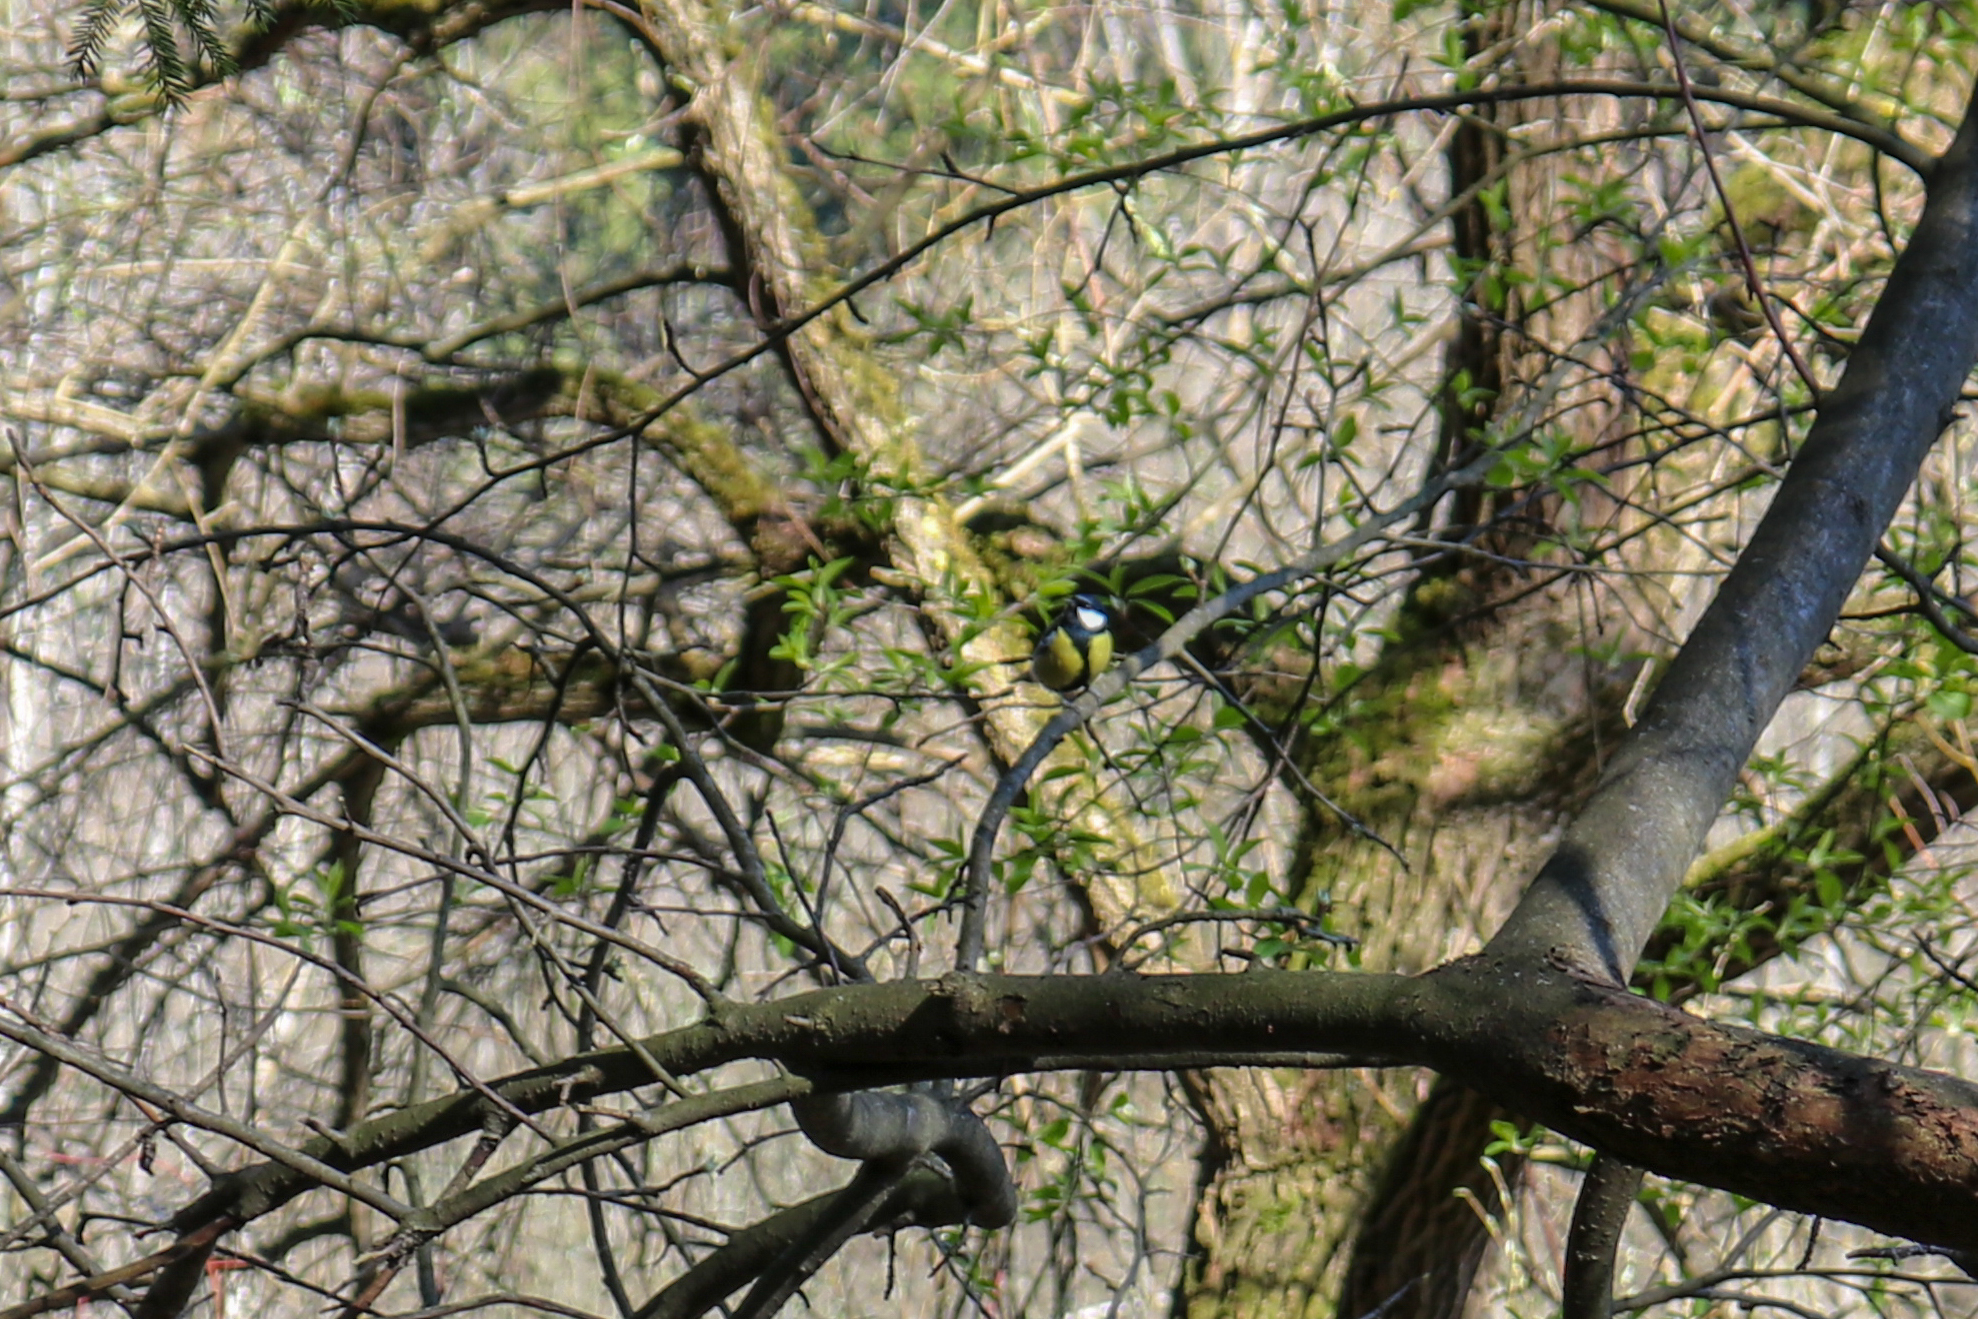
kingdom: Animalia
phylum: Chordata
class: Aves
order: Passeriformes
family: Paridae
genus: Parus
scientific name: Parus major
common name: Great tit
